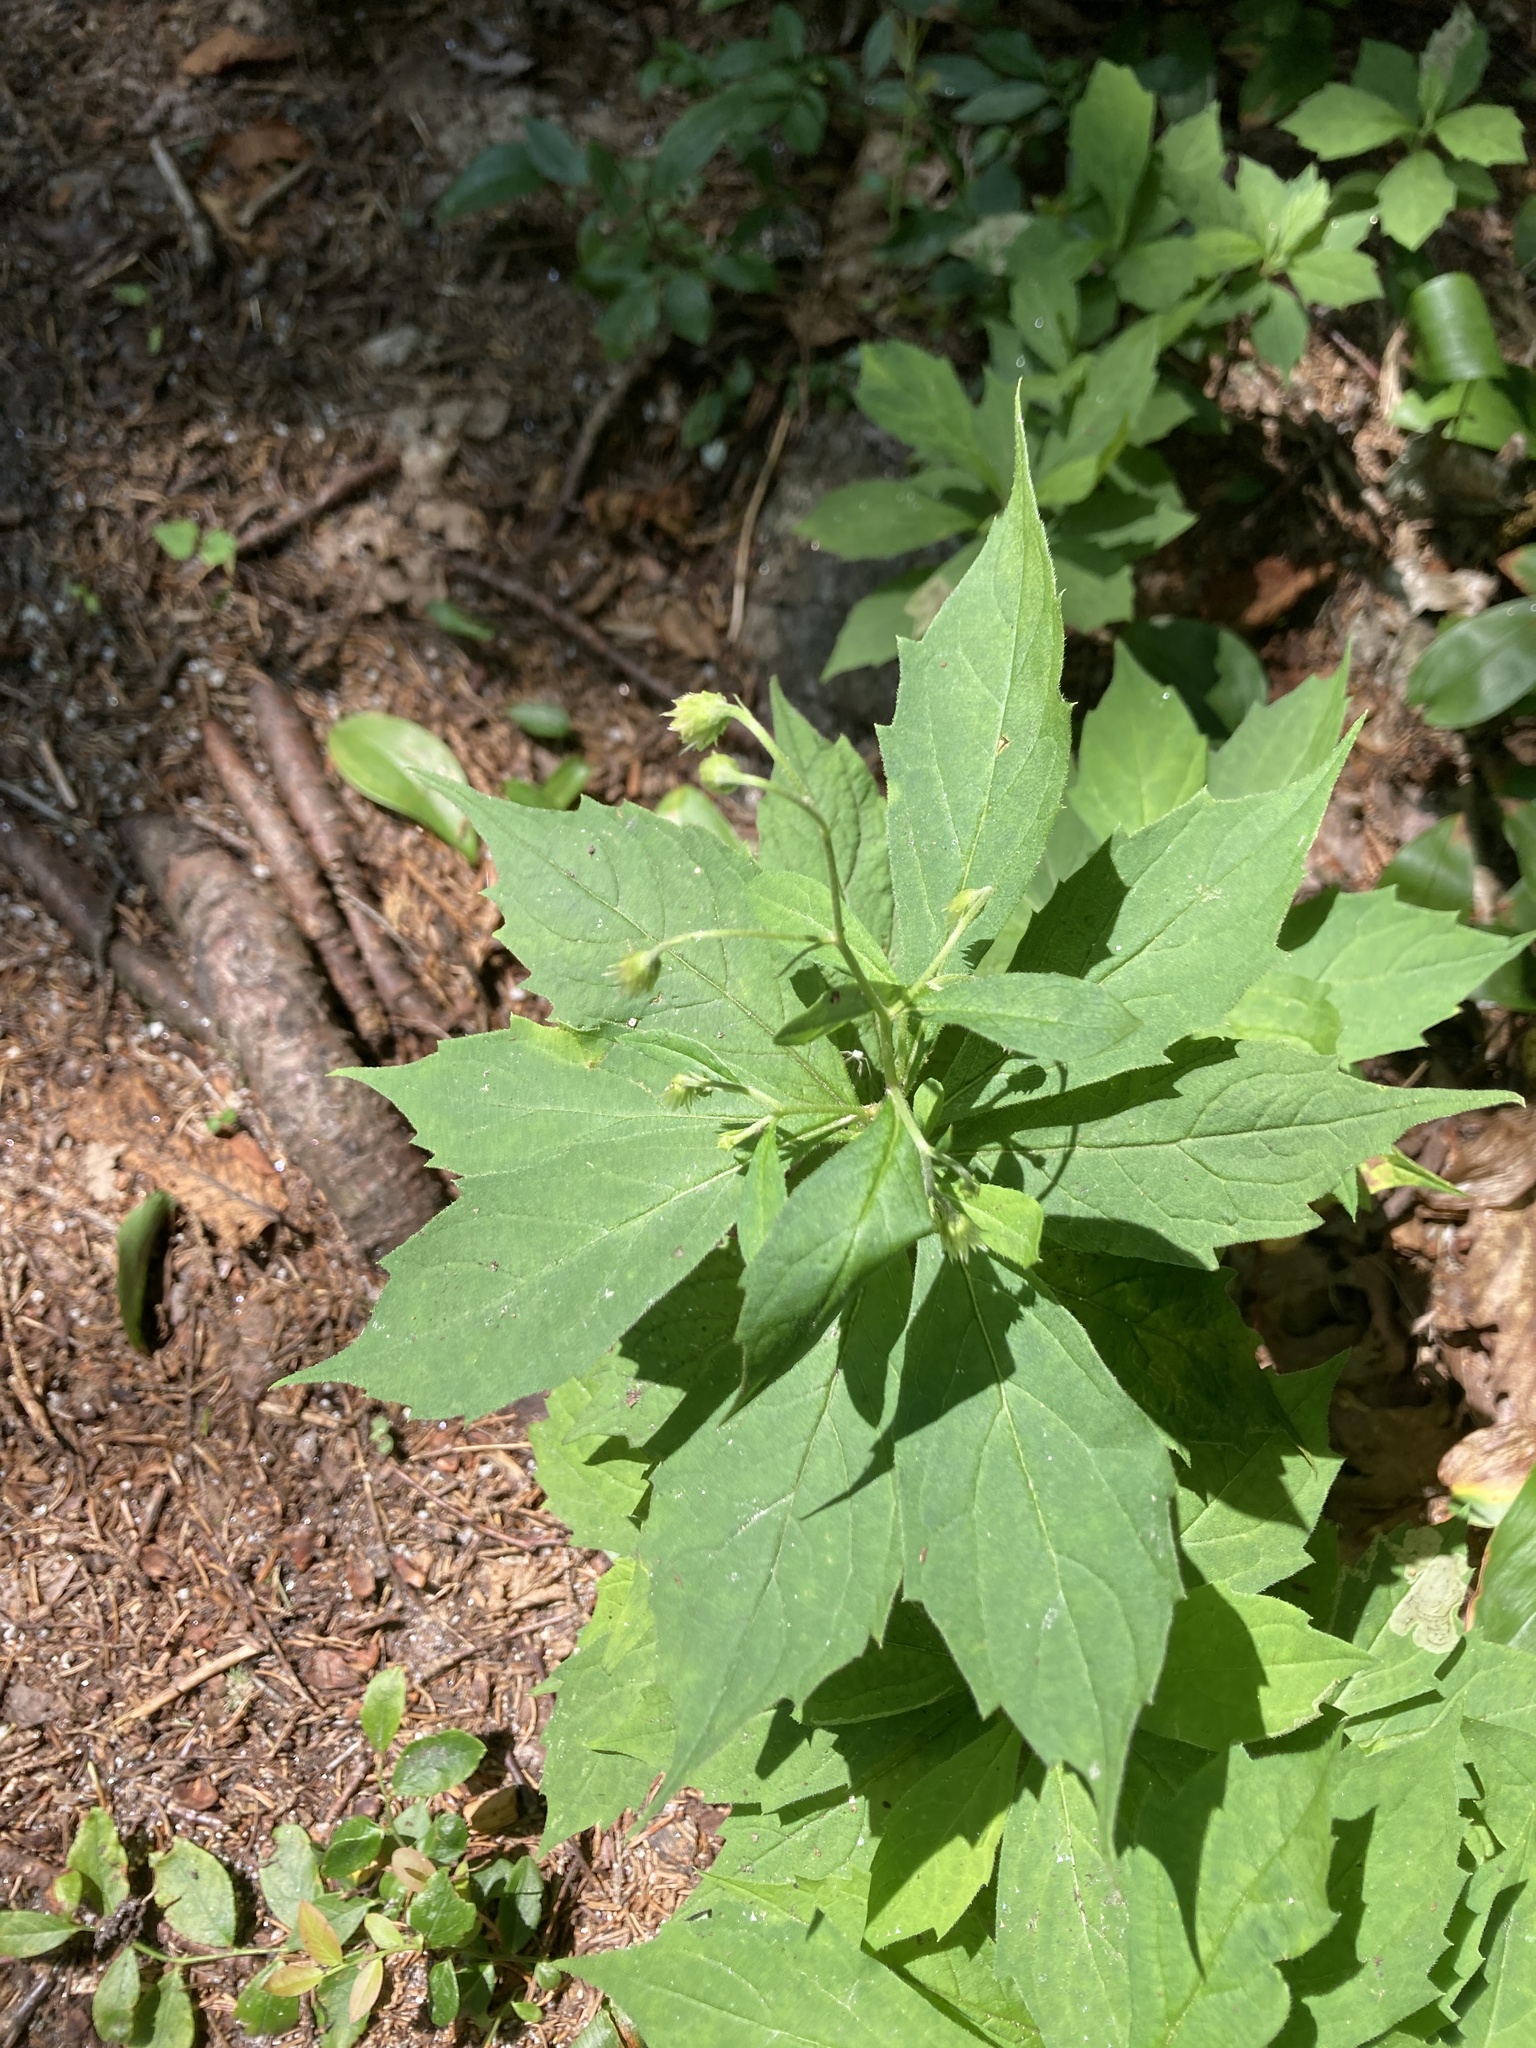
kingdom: Plantae
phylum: Tracheophyta
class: Magnoliopsida
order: Asterales
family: Asteraceae
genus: Oclemena
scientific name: Oclemena acuminata
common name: Mountain aster
